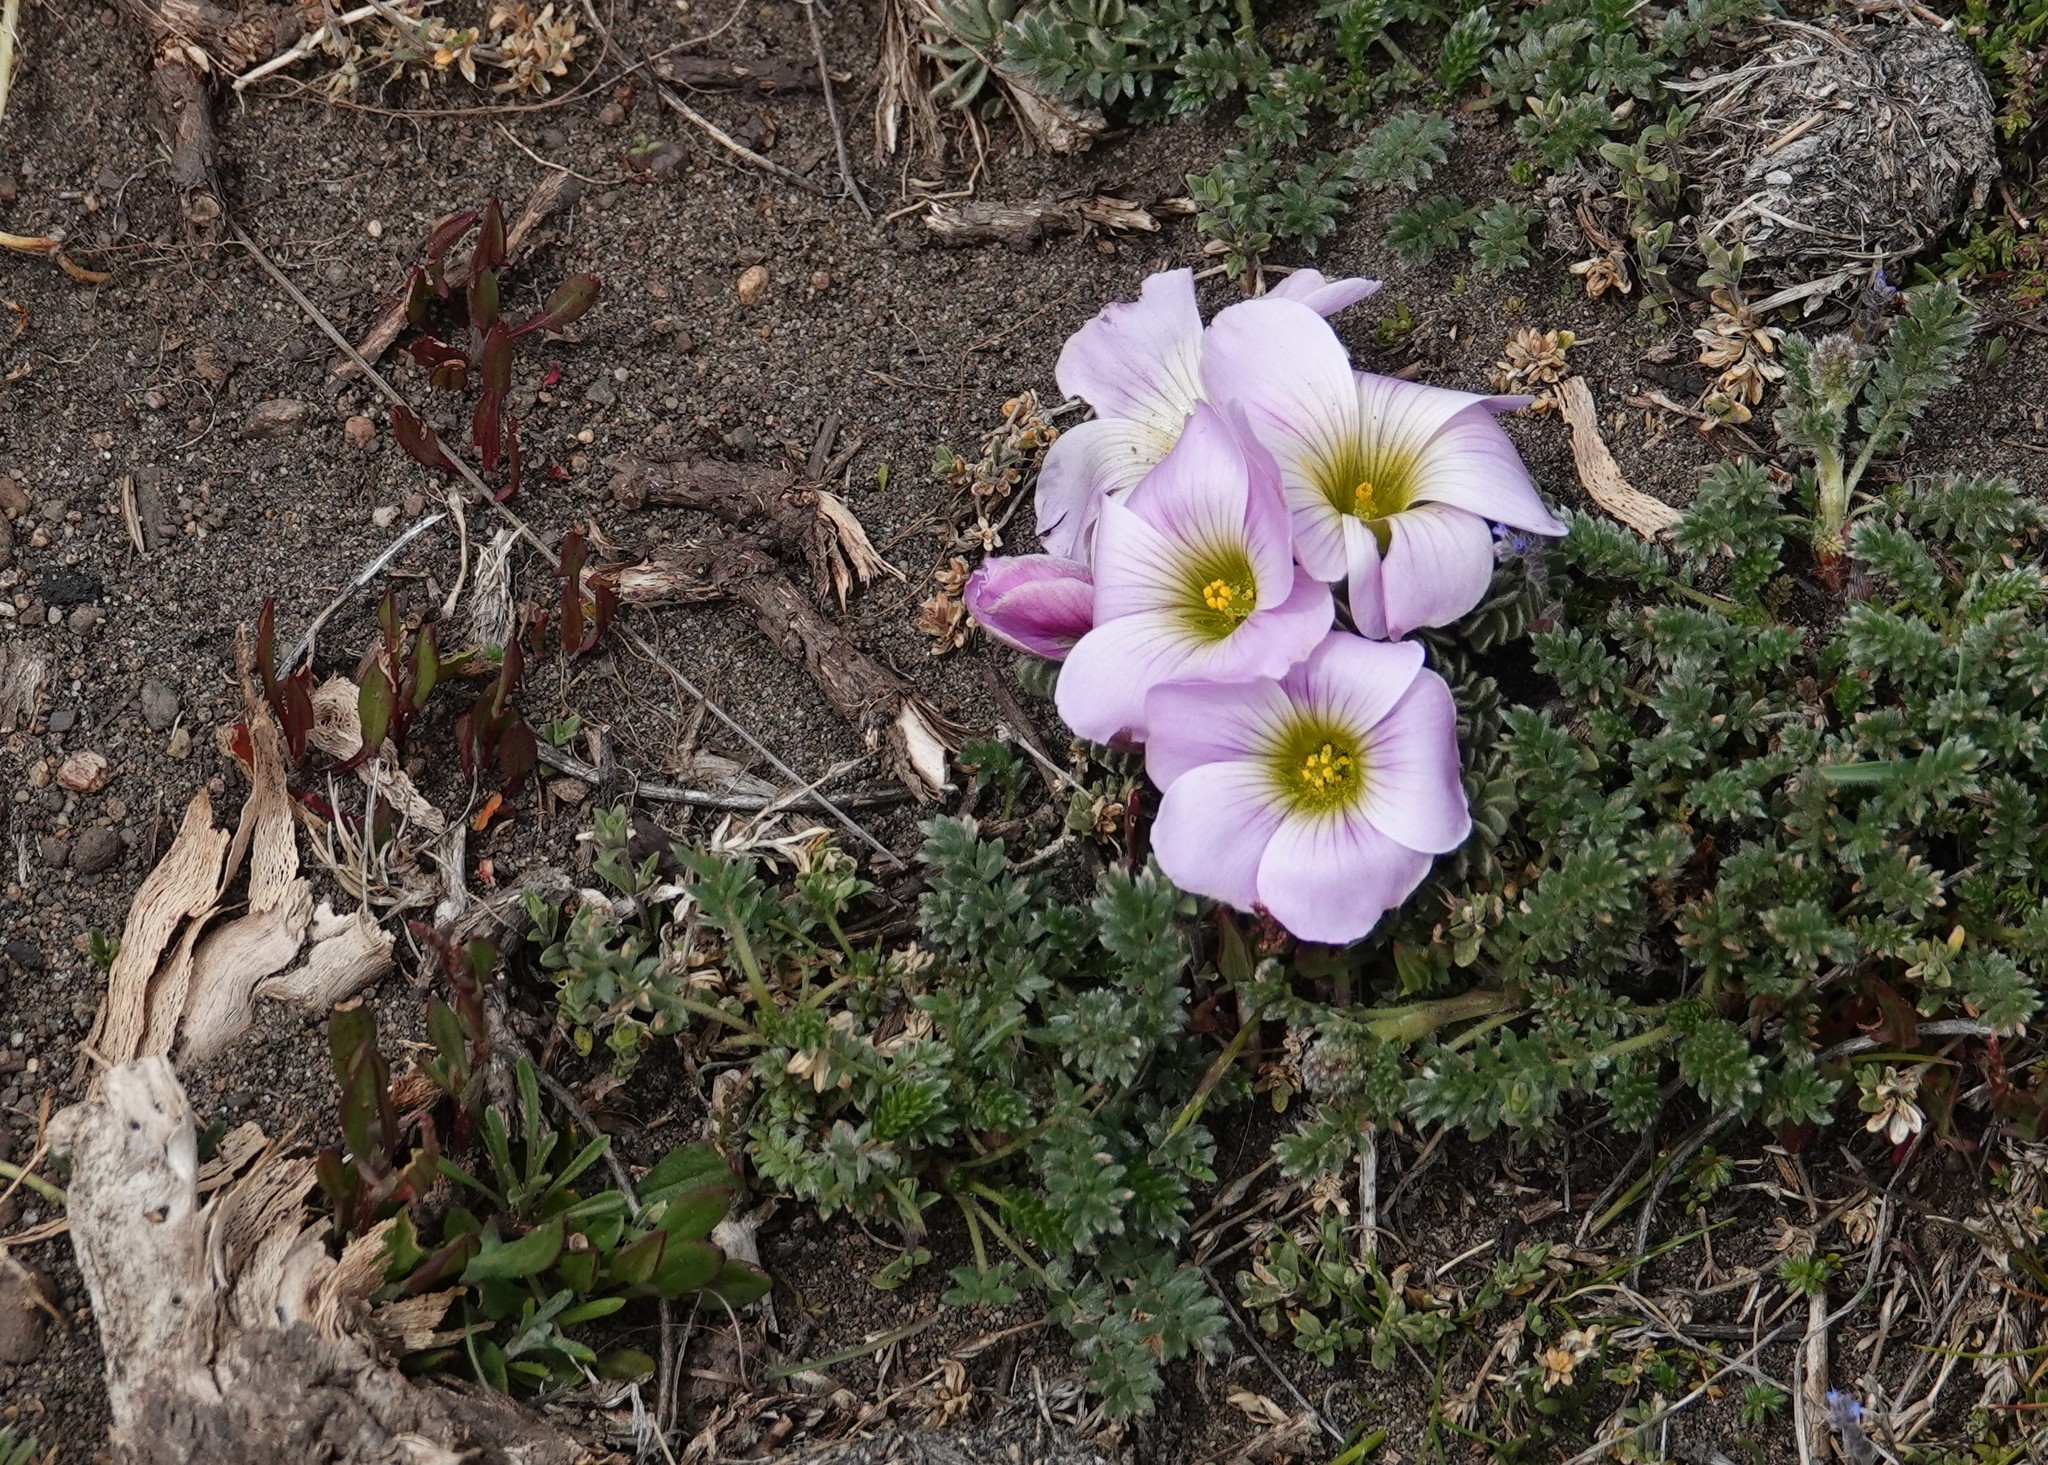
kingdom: Plantae
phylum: Tracheophyta
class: Magnoliopsida
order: Oxalidales
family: Oxalidaceae
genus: Oxalis
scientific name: Oxalis enneaphylla
